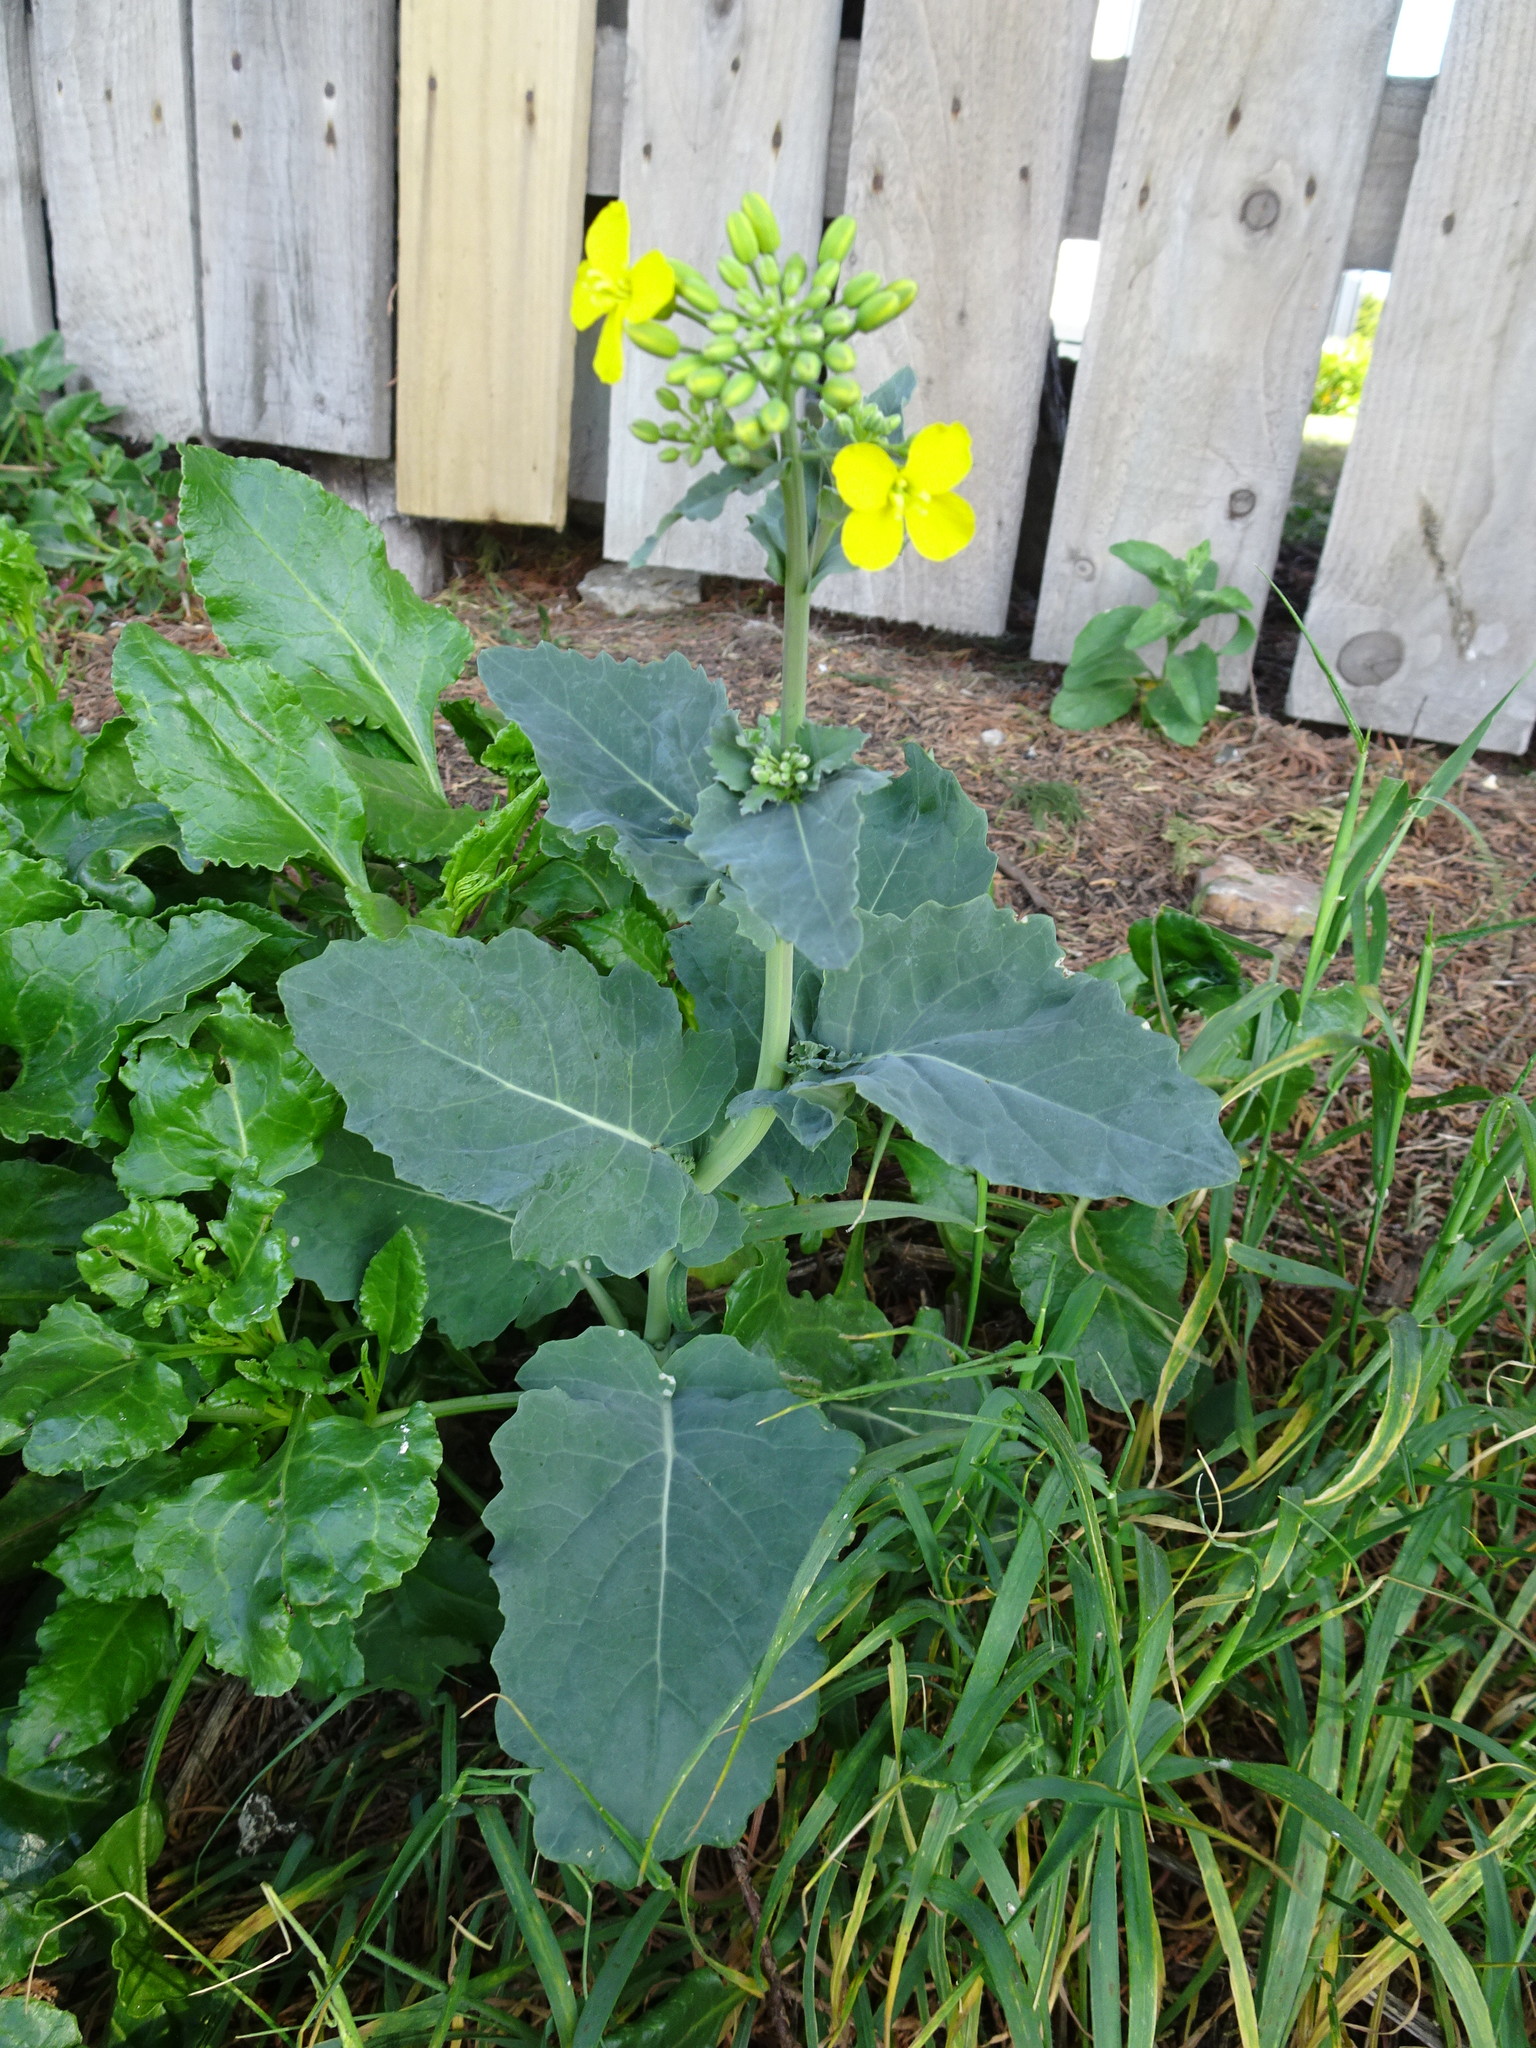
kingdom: Plantae
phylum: Tracheophyta
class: Magnoliopsida
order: Brassicales
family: Brassicaceae
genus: Brassica
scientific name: Brassica oleracea
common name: Cabbage
